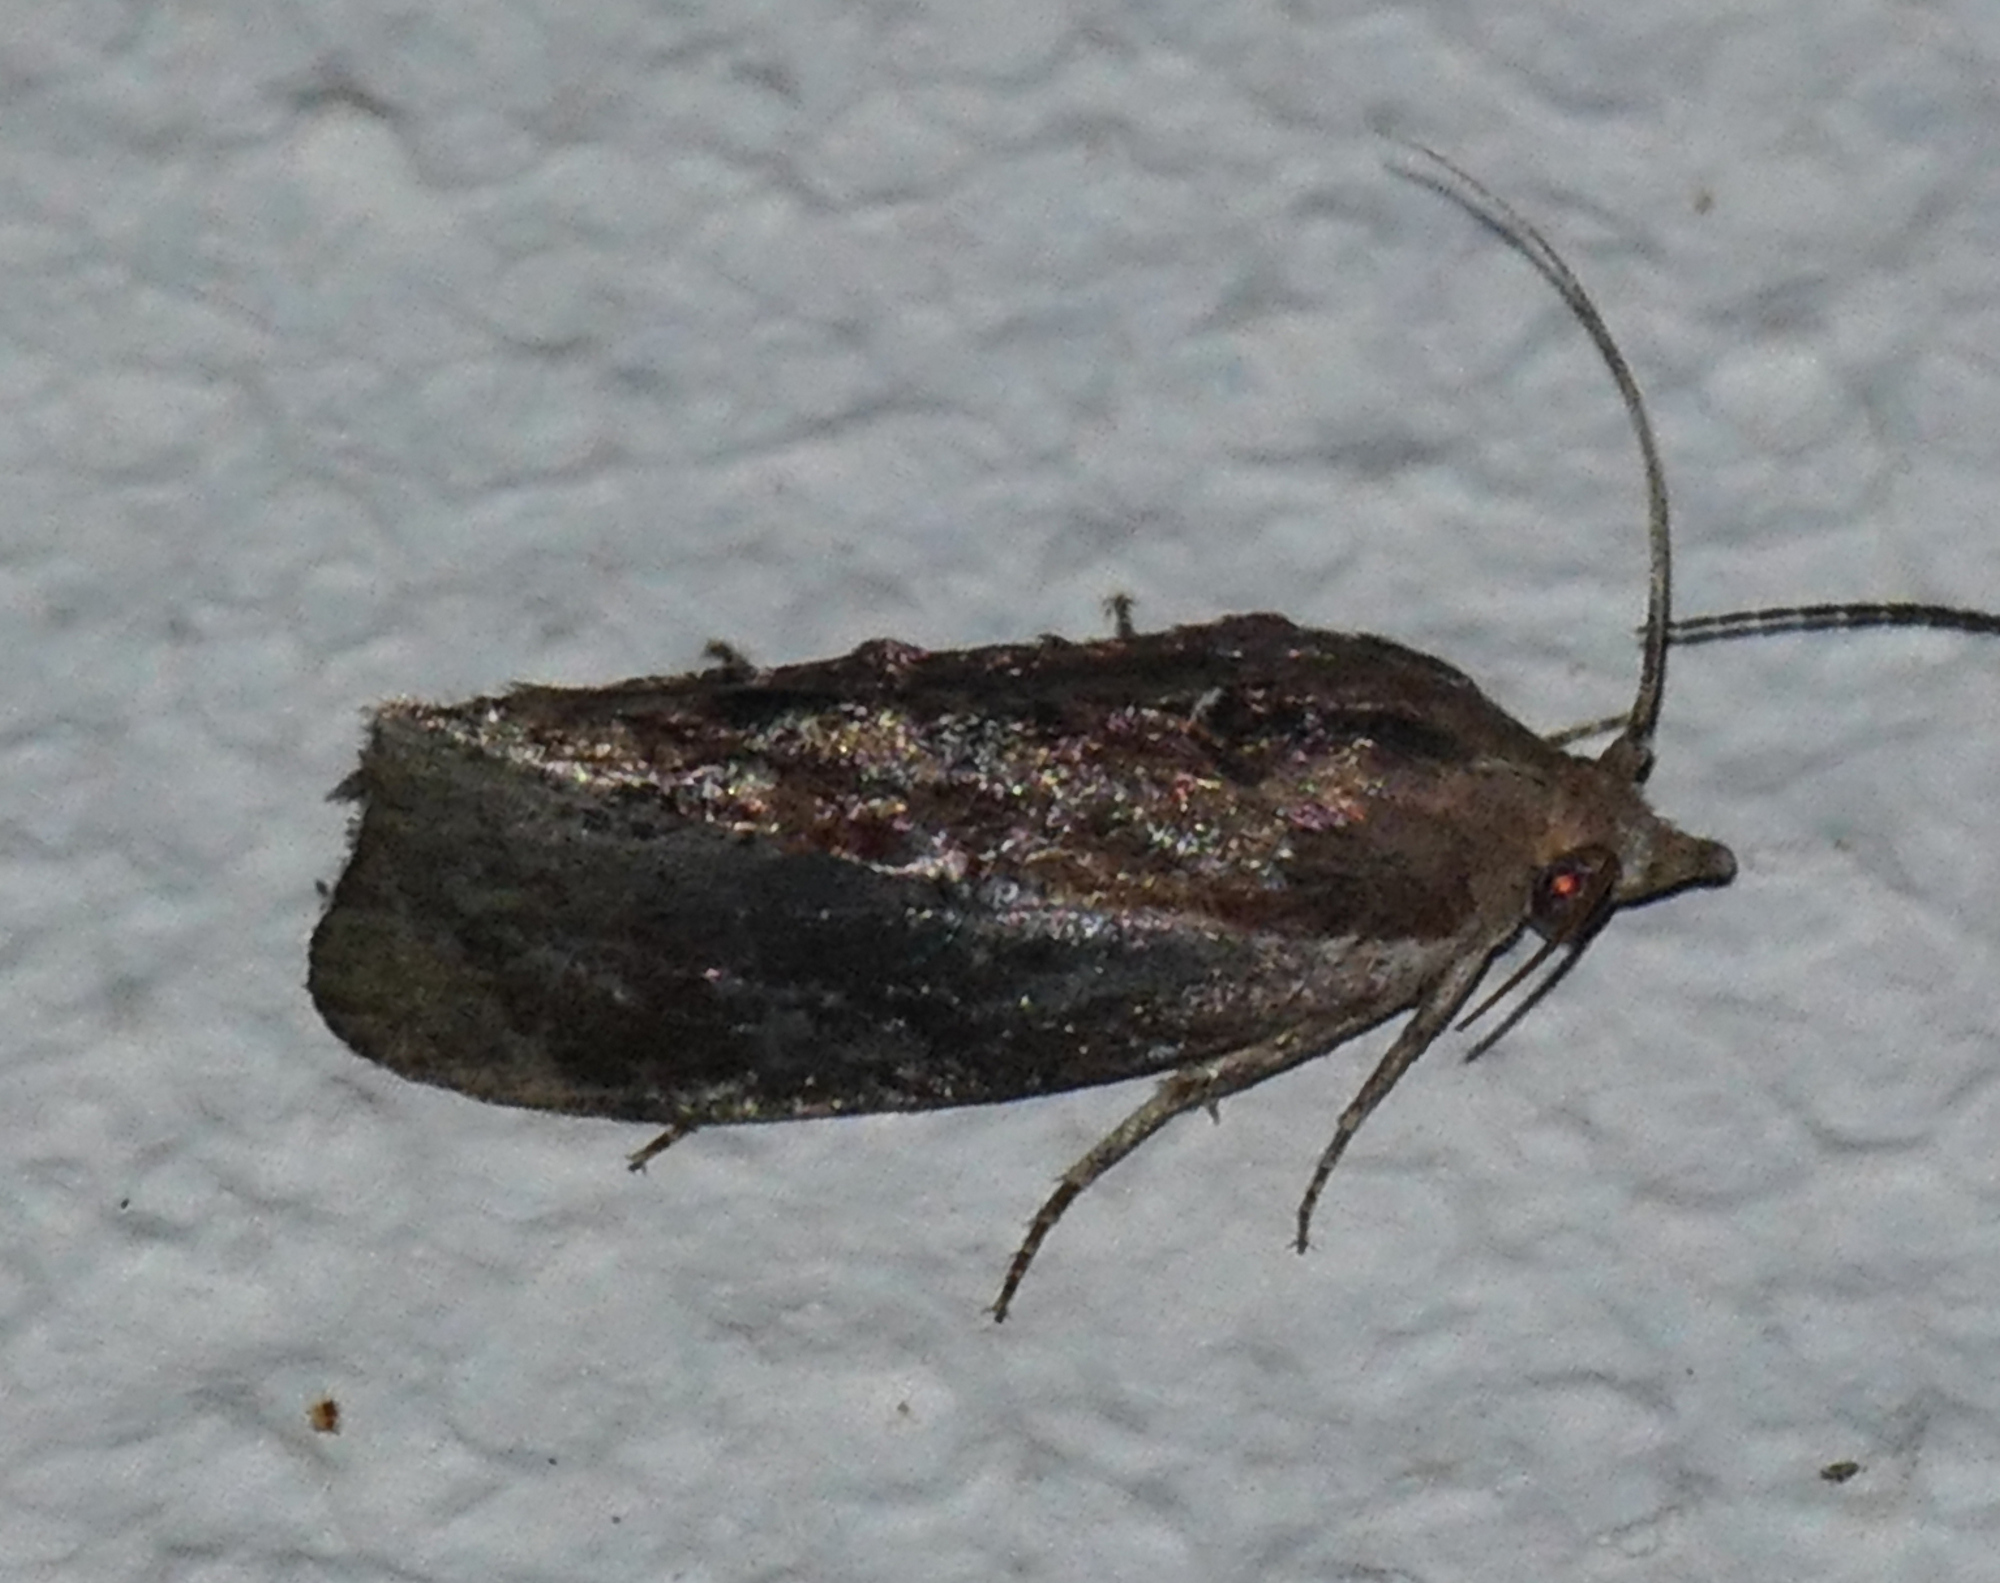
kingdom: Animalia
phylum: Arthropoda
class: Insecta
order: Lepidoptera
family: Pyralidae
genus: Galleria
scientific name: Galleria mellonella
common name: Greater wax moth
